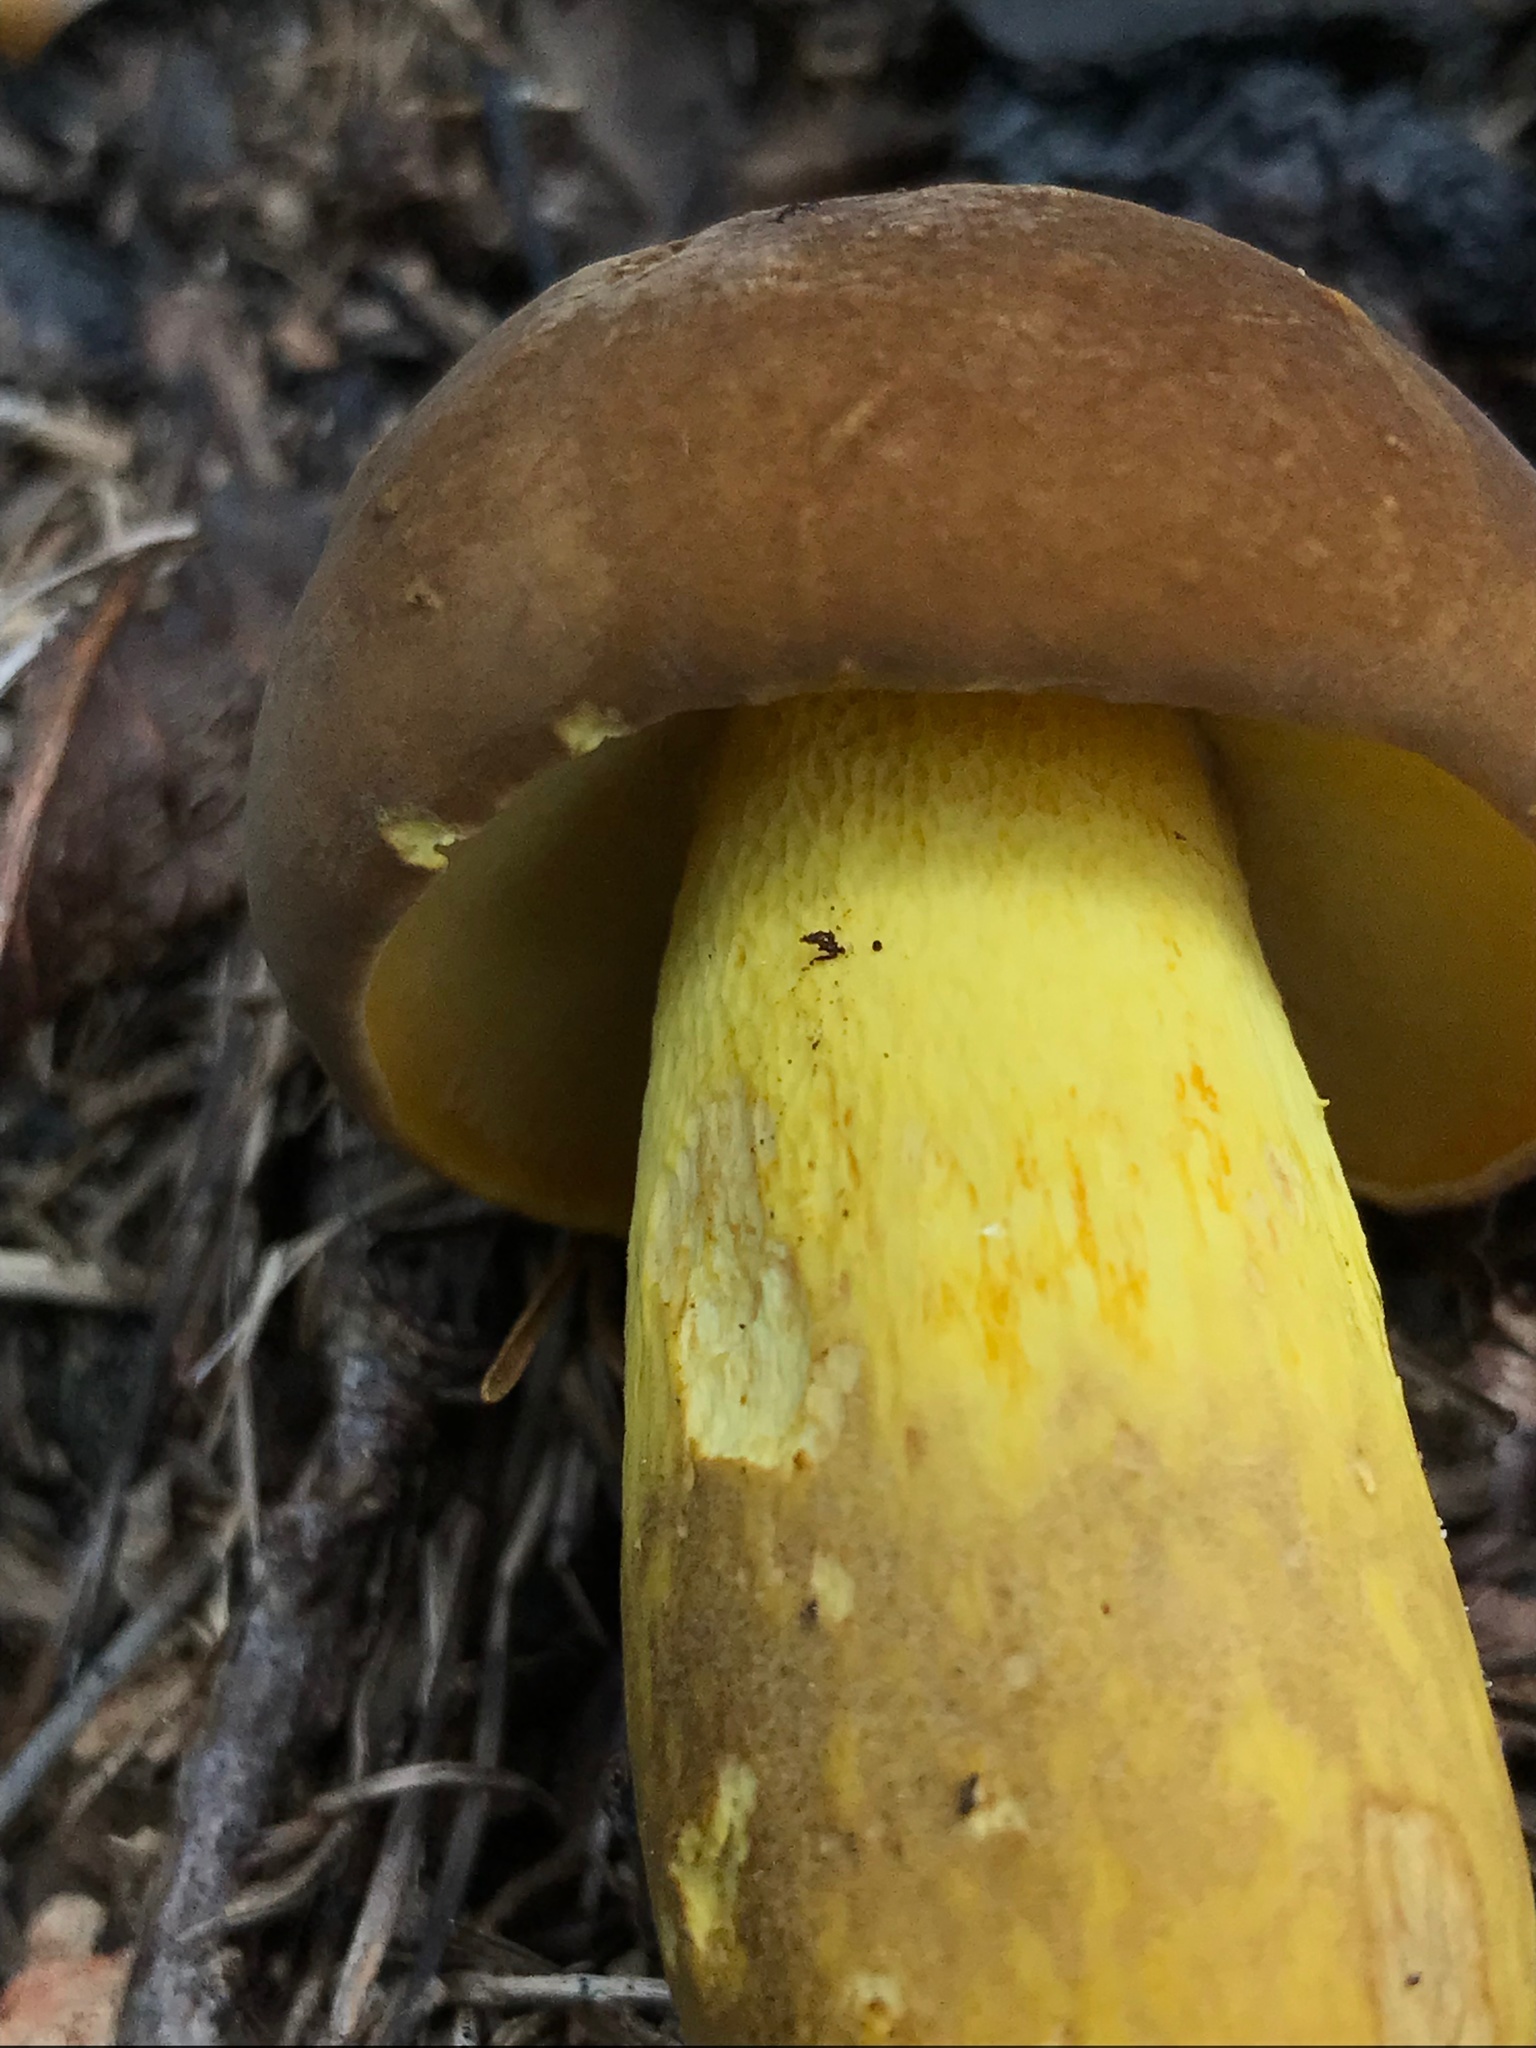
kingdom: Fungi
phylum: Basidiomycota
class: Agaricomycetes
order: Boletales
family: Boletaceae
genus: Boletus
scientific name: Boletus auripes
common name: Butter-foot bolete
